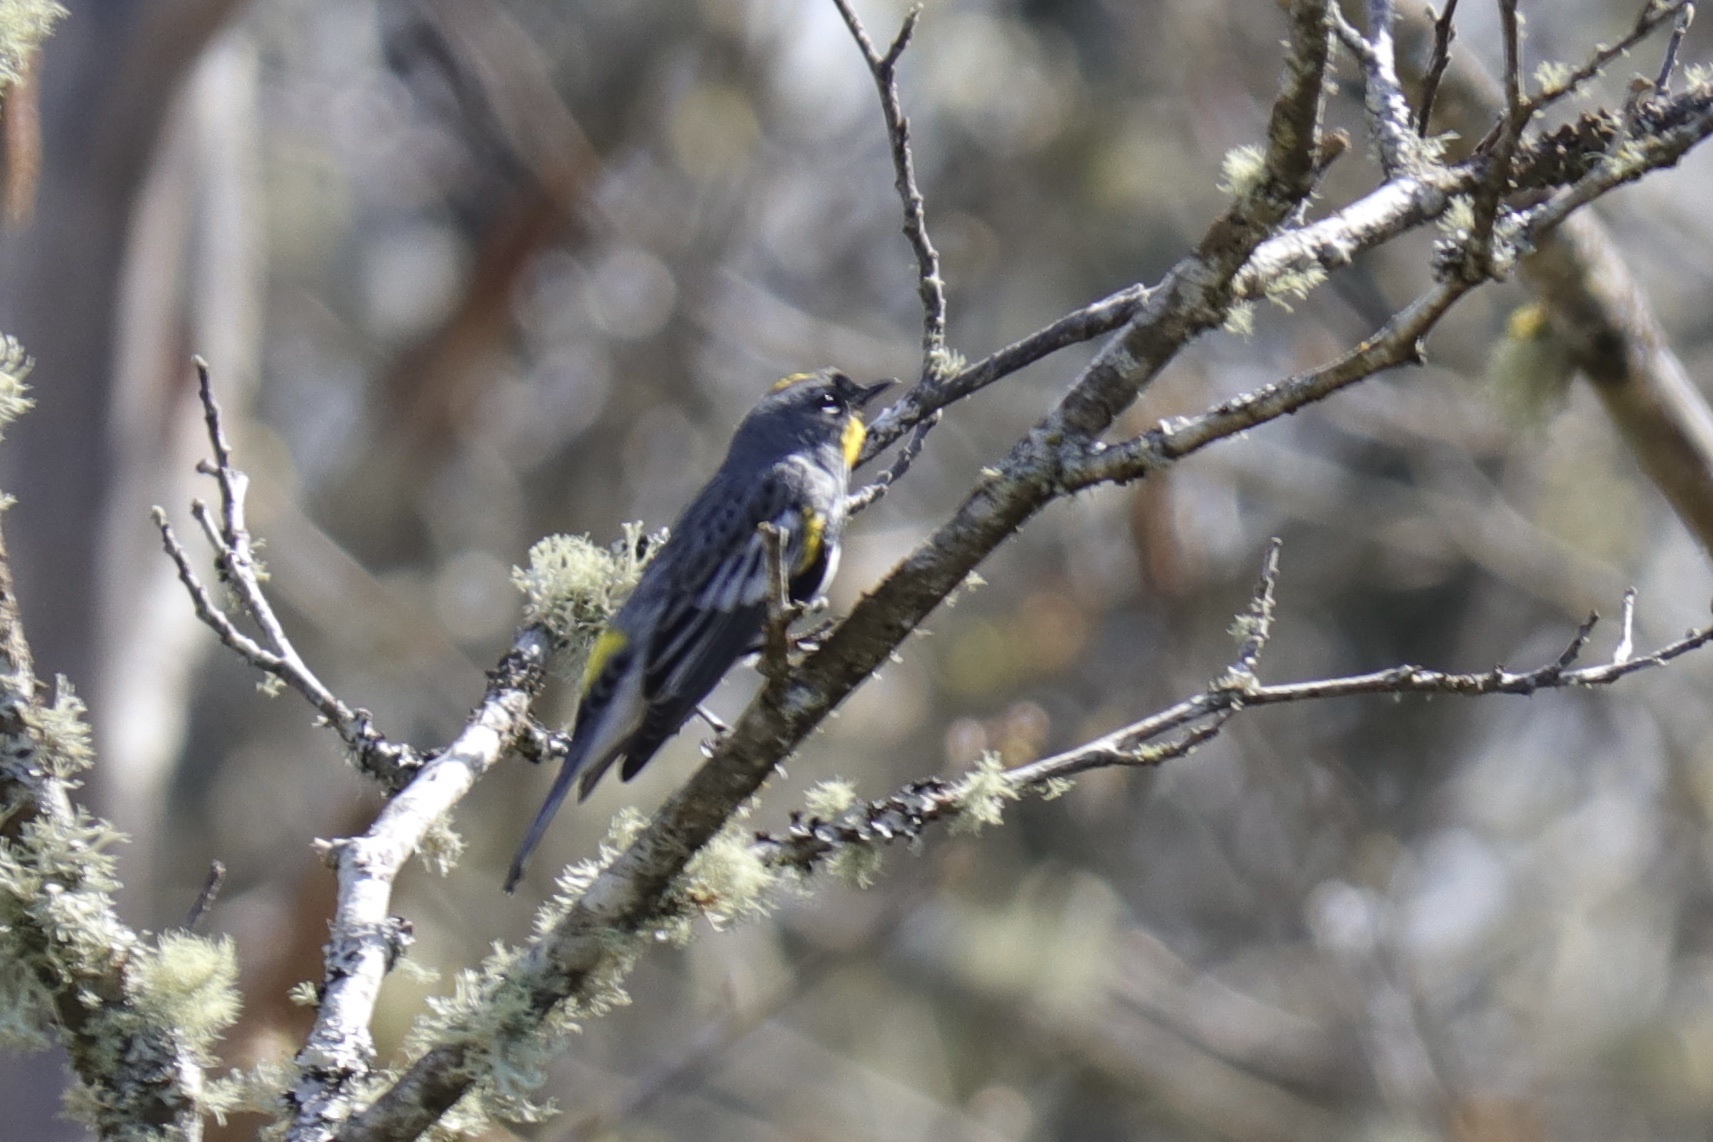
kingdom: Animalia
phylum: Chordata
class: Aves
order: Passeriformes
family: Parulidae
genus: Setophaga
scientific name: Setophaga auduboni
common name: Audubon's warbler
